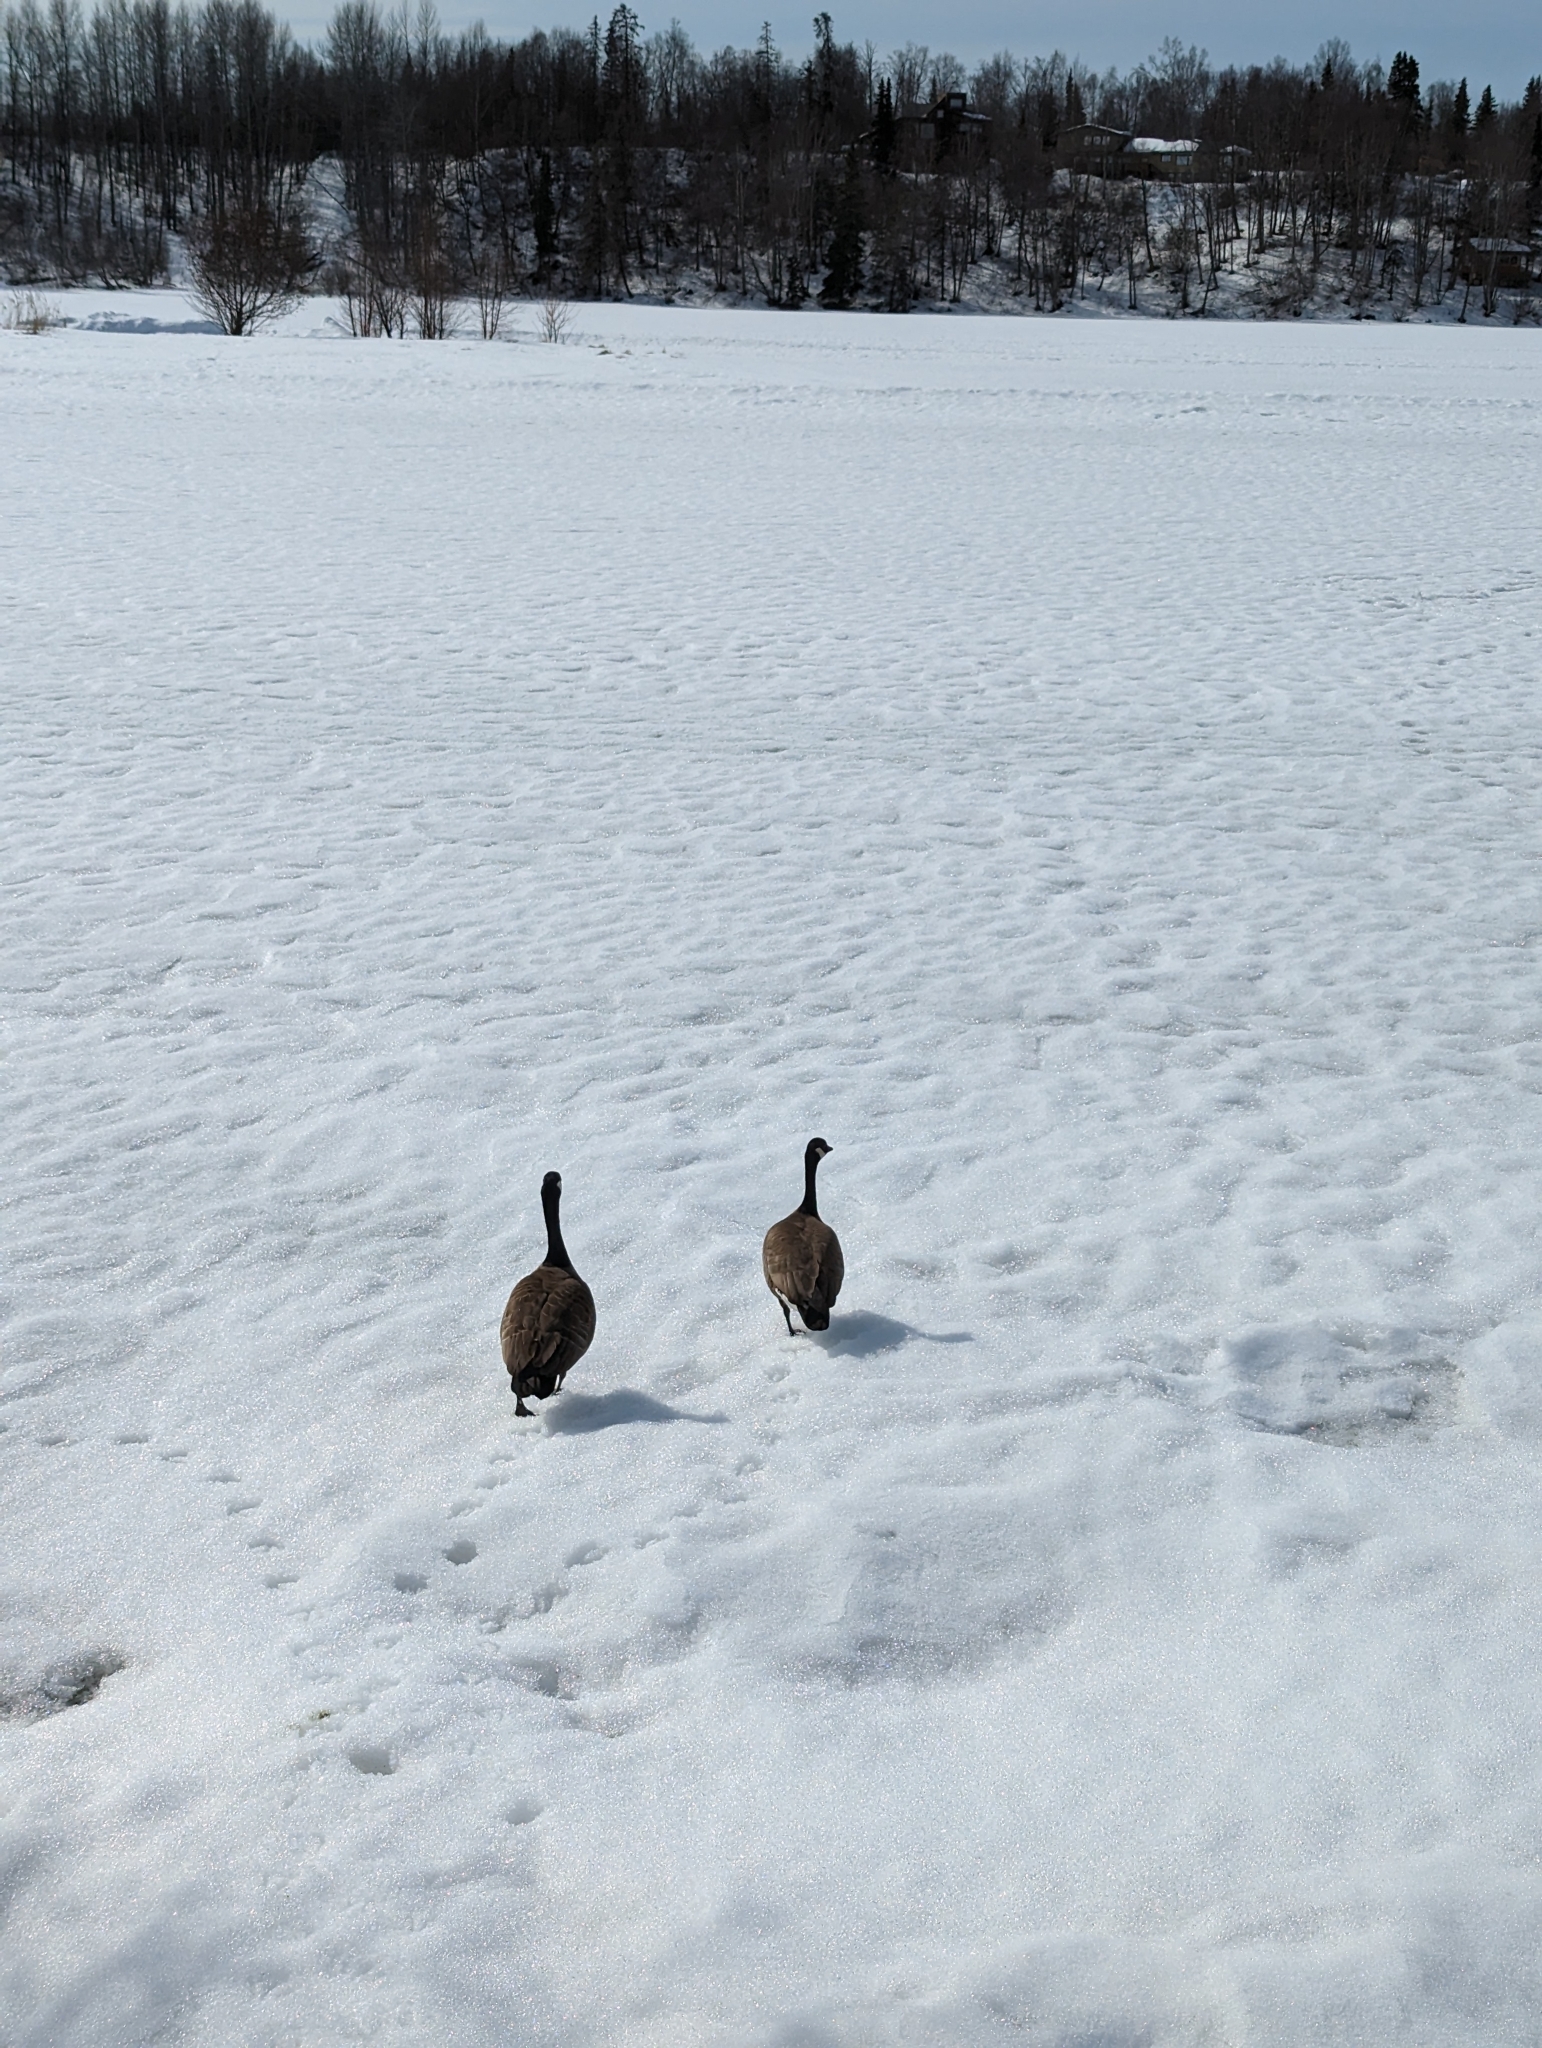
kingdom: Animalia
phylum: Chordata
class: Aves
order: Anseriformes
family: Anatidae
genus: Branta
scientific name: Branta canadensis
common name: Canada goose
